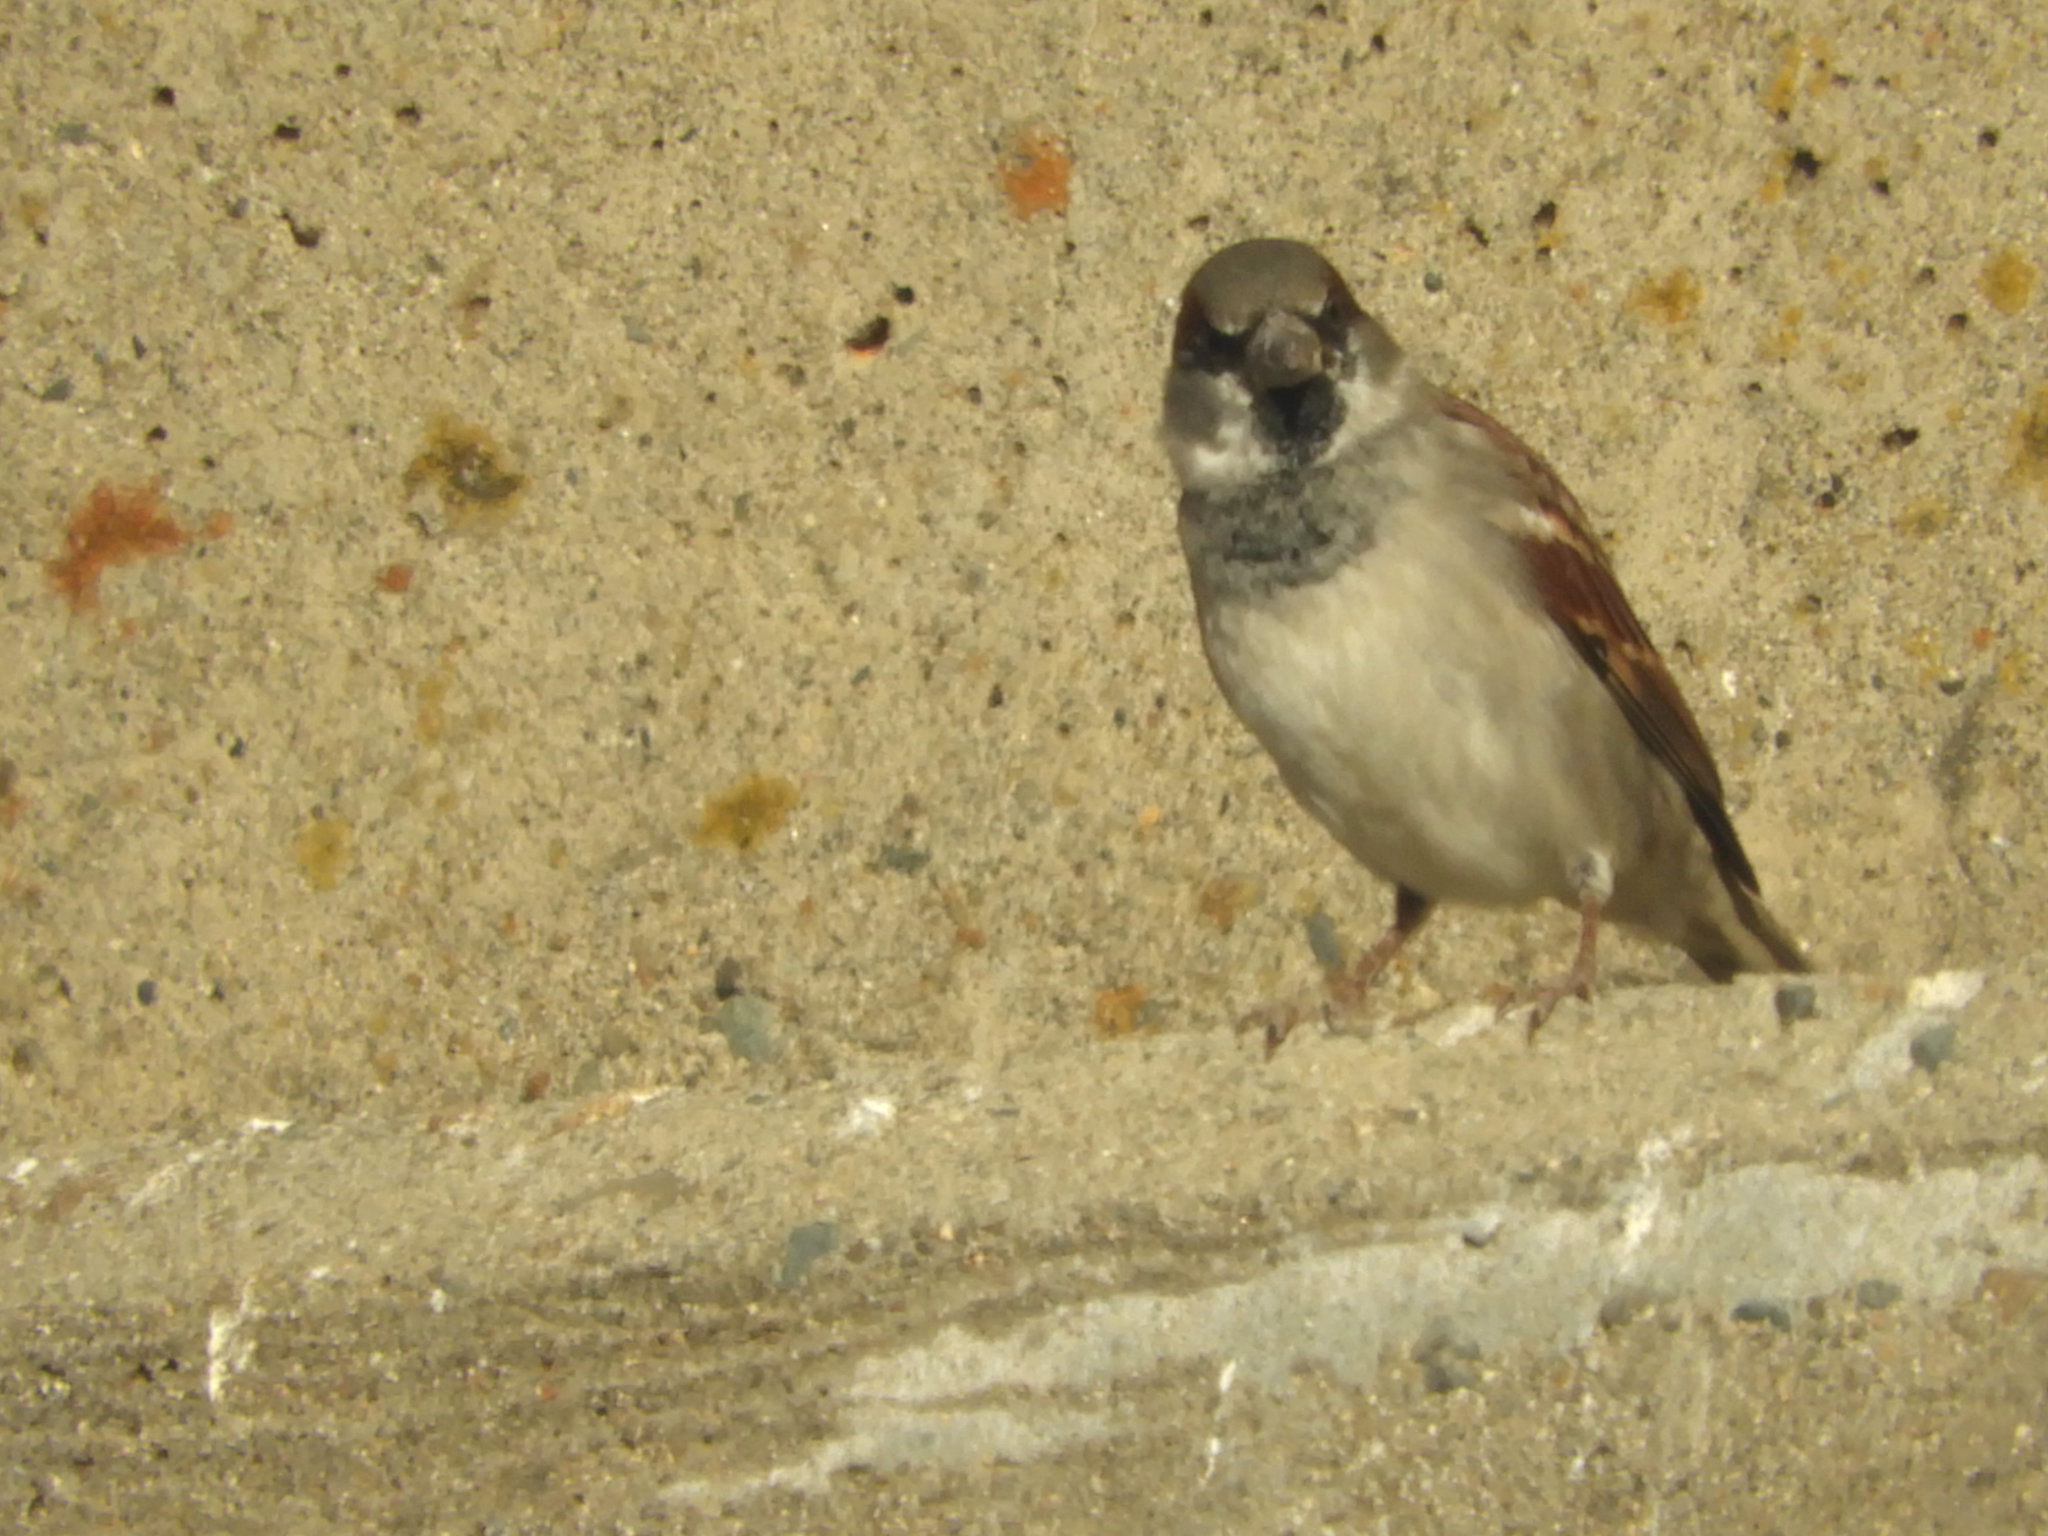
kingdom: Animalia
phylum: Chordata
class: Aves
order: Passeriformes
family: Passeridae
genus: Passer
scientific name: Passer domesticus
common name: House sparrow
